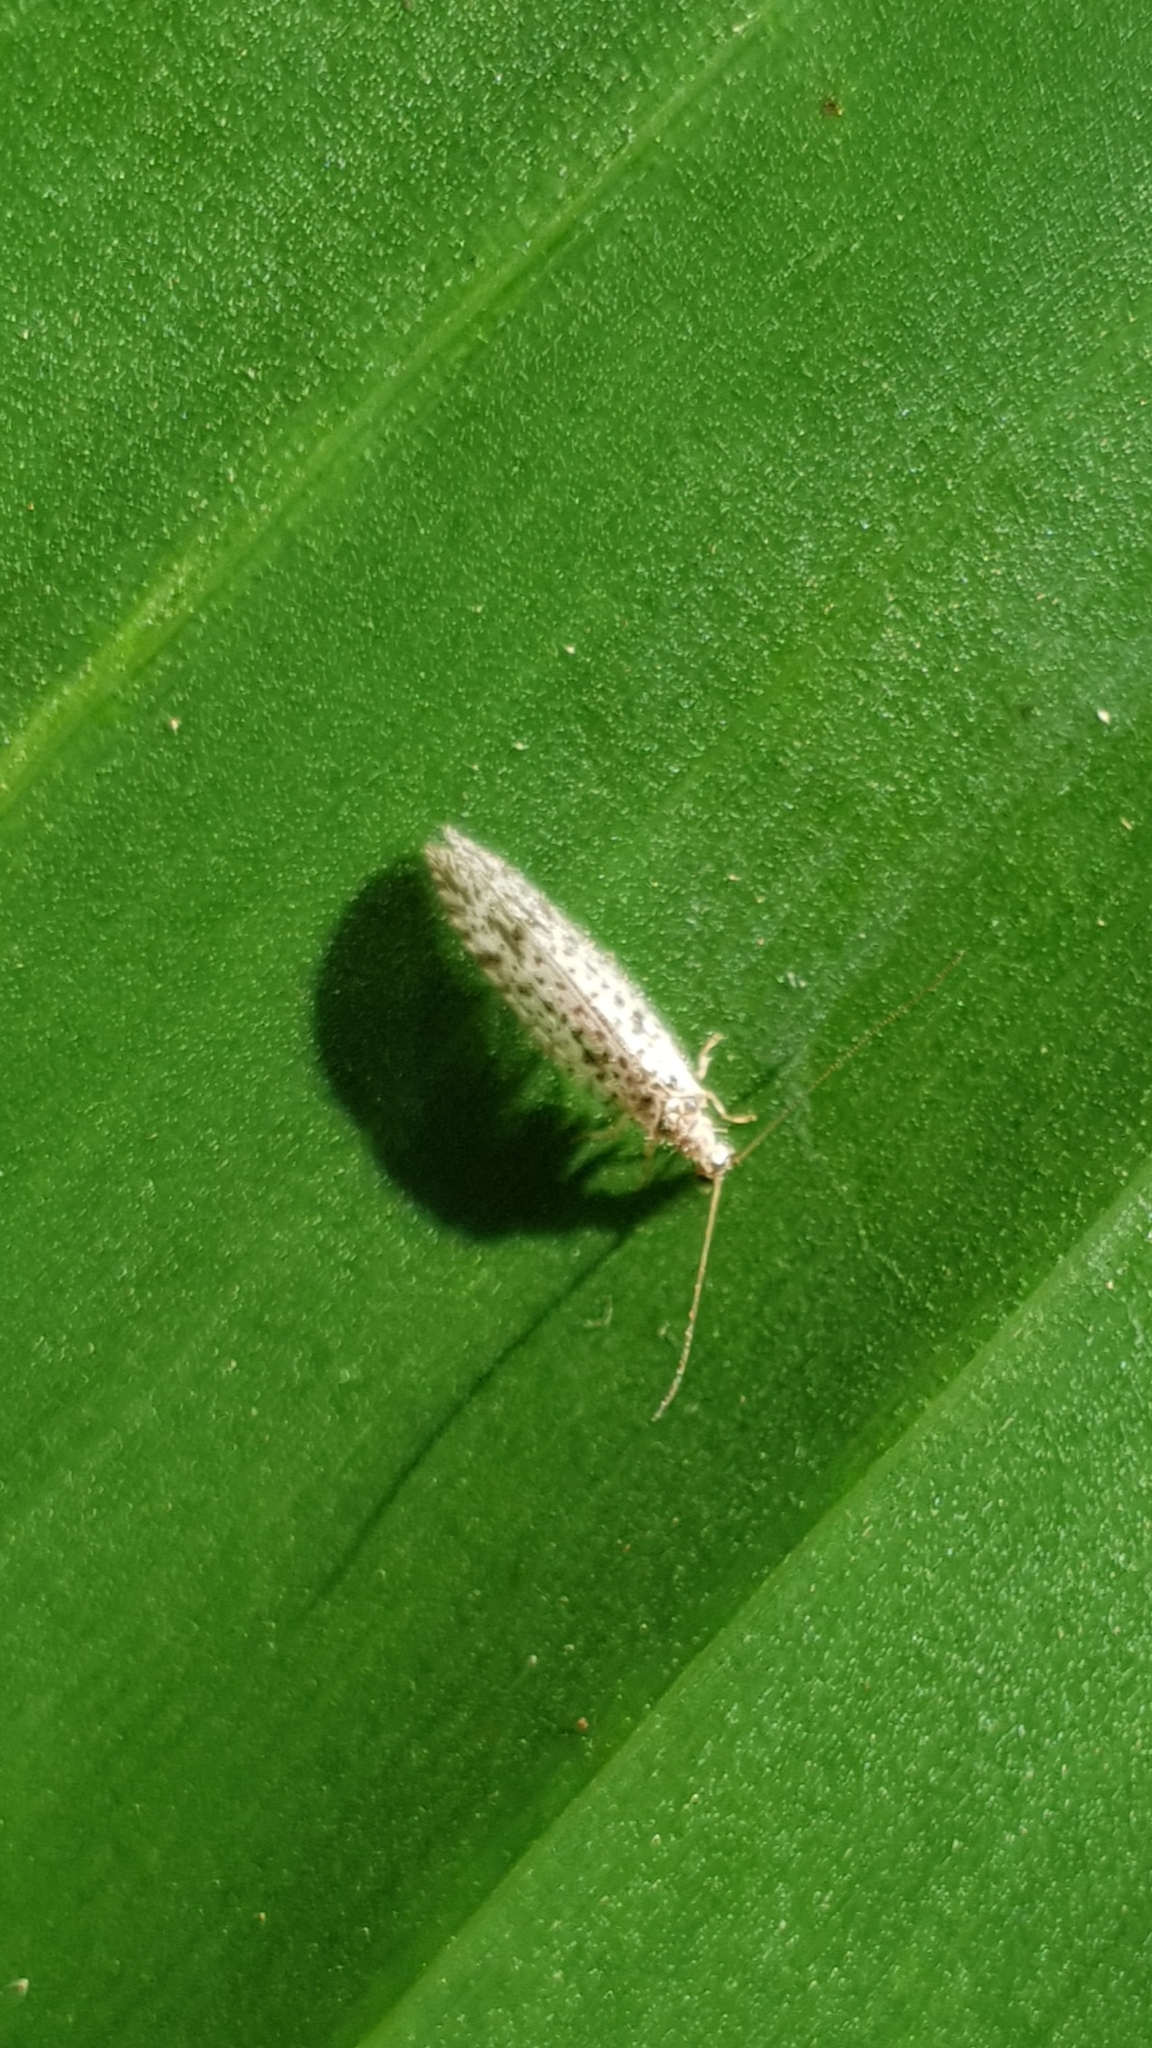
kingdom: Animalia
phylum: Arthropoda
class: Insecta
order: Neuroptera
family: Hemerobiidae
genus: Micromus
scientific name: Micromus variegatus
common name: Brown lacewing
